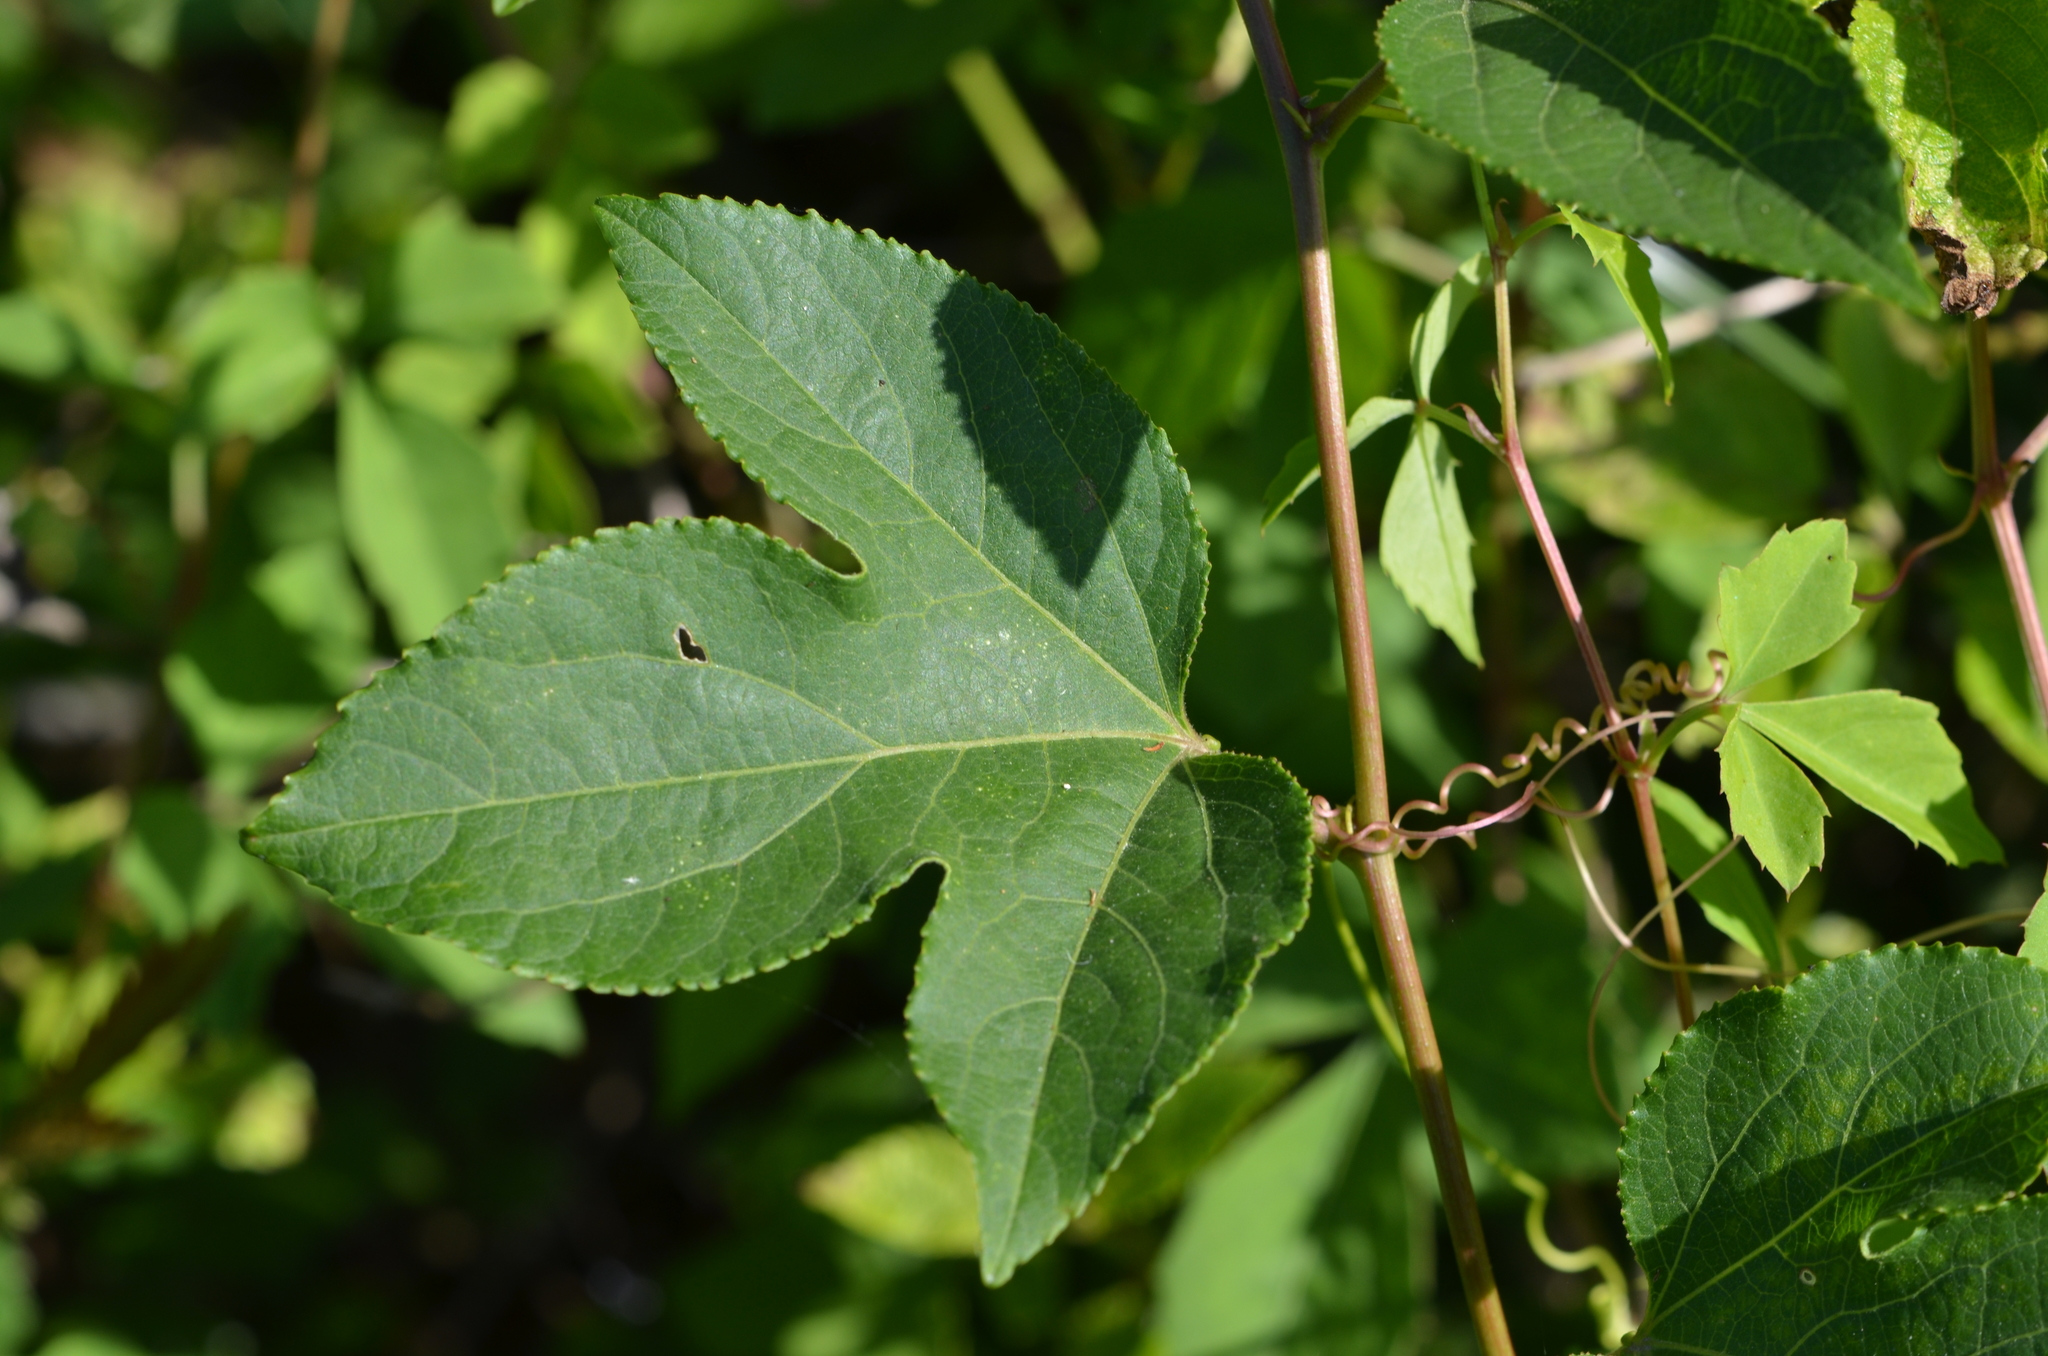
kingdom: Plantae
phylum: Tracheophyta
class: Magnoliopsida
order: Malpighiales
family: Passifloraceae
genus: Passiflora
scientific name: Passiflora incarnata
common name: Apricot-vine
